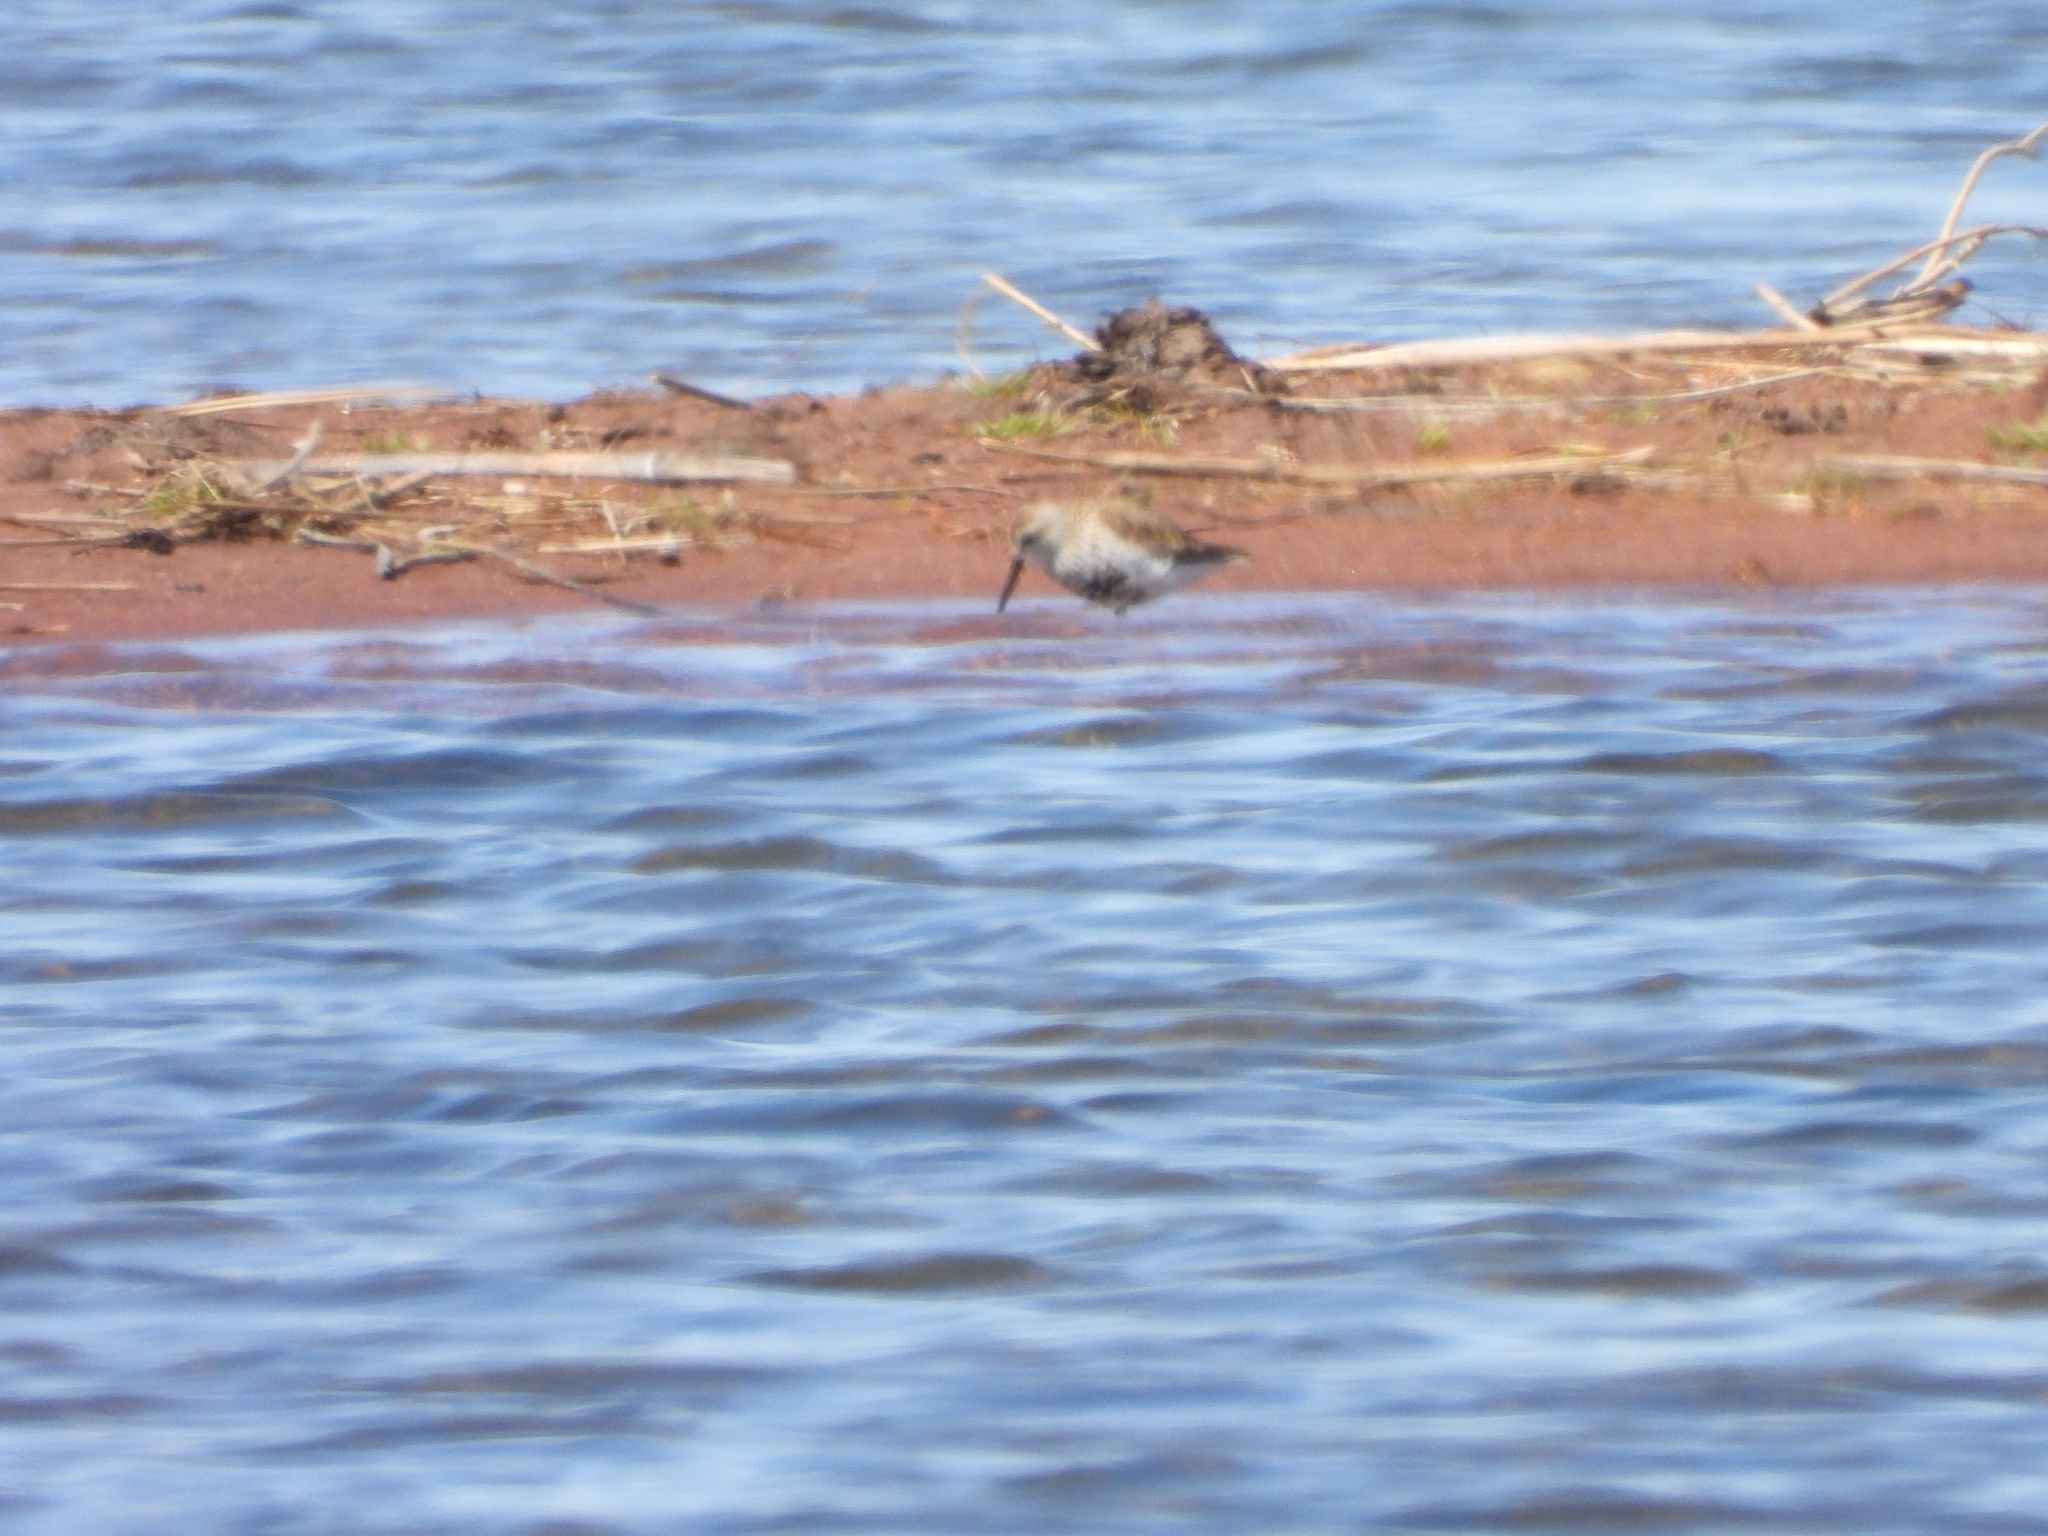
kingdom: Animalia
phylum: Chordata
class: Aves
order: Charadriiformes
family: Scolopacidae
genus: Calidris
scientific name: Calidris alpina
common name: Dunlin
